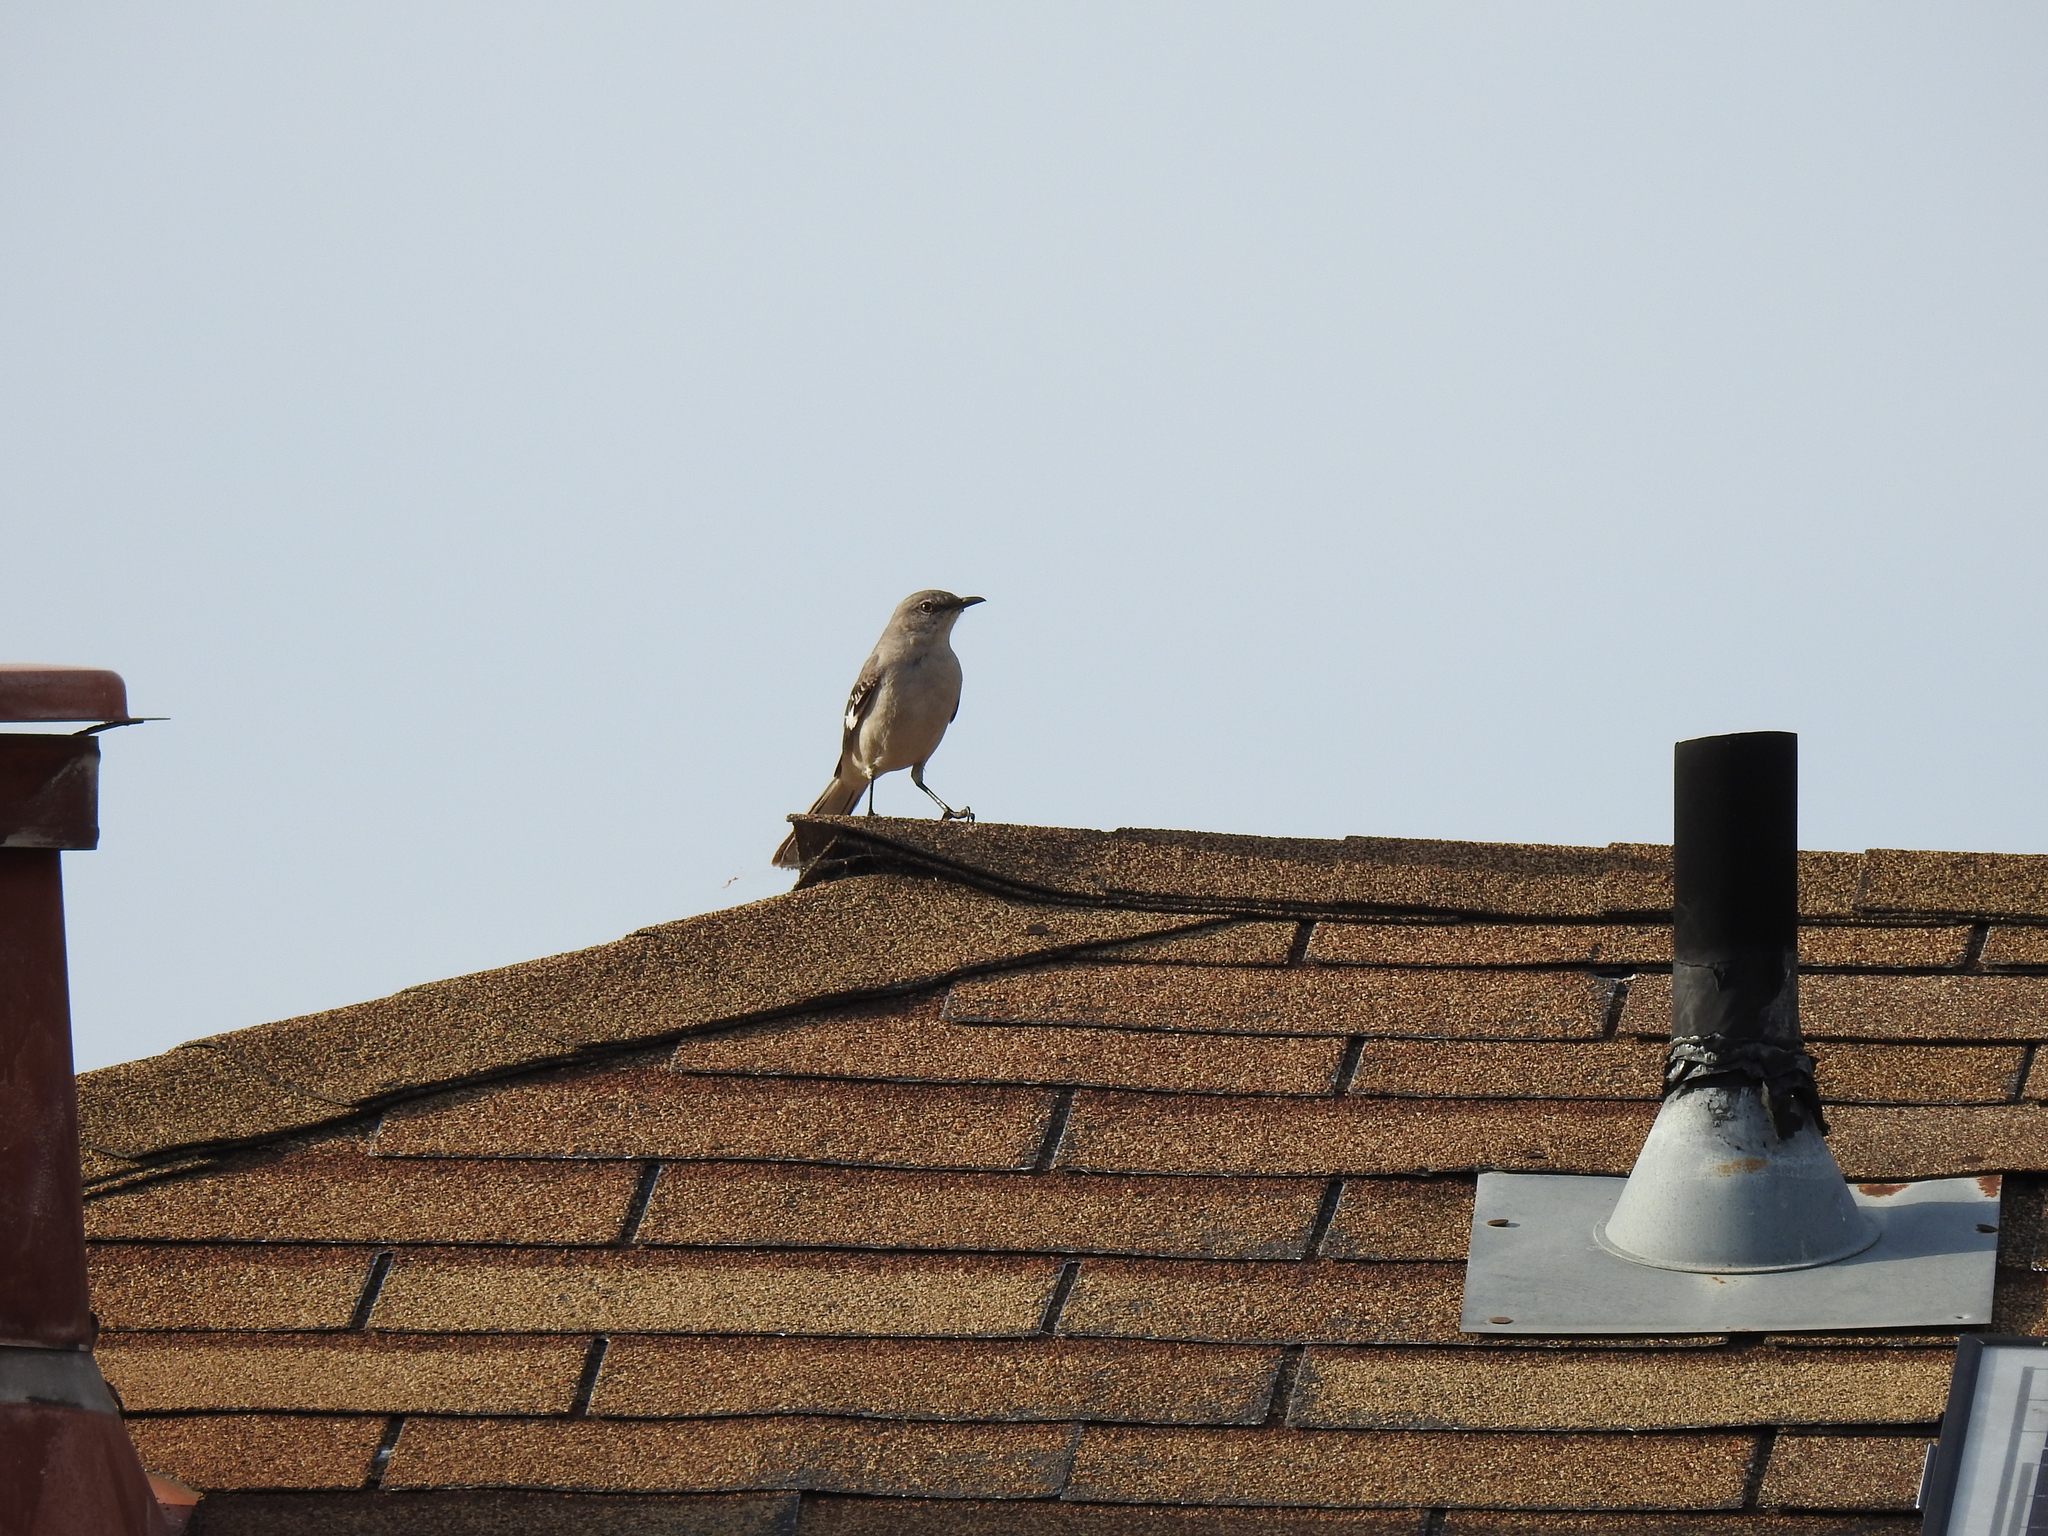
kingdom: Animalia
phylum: Chordata
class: Aves
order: Passeriformes
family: Mimidae
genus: Mimus
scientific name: Mimus polyglottos
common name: Northern mockingbird
